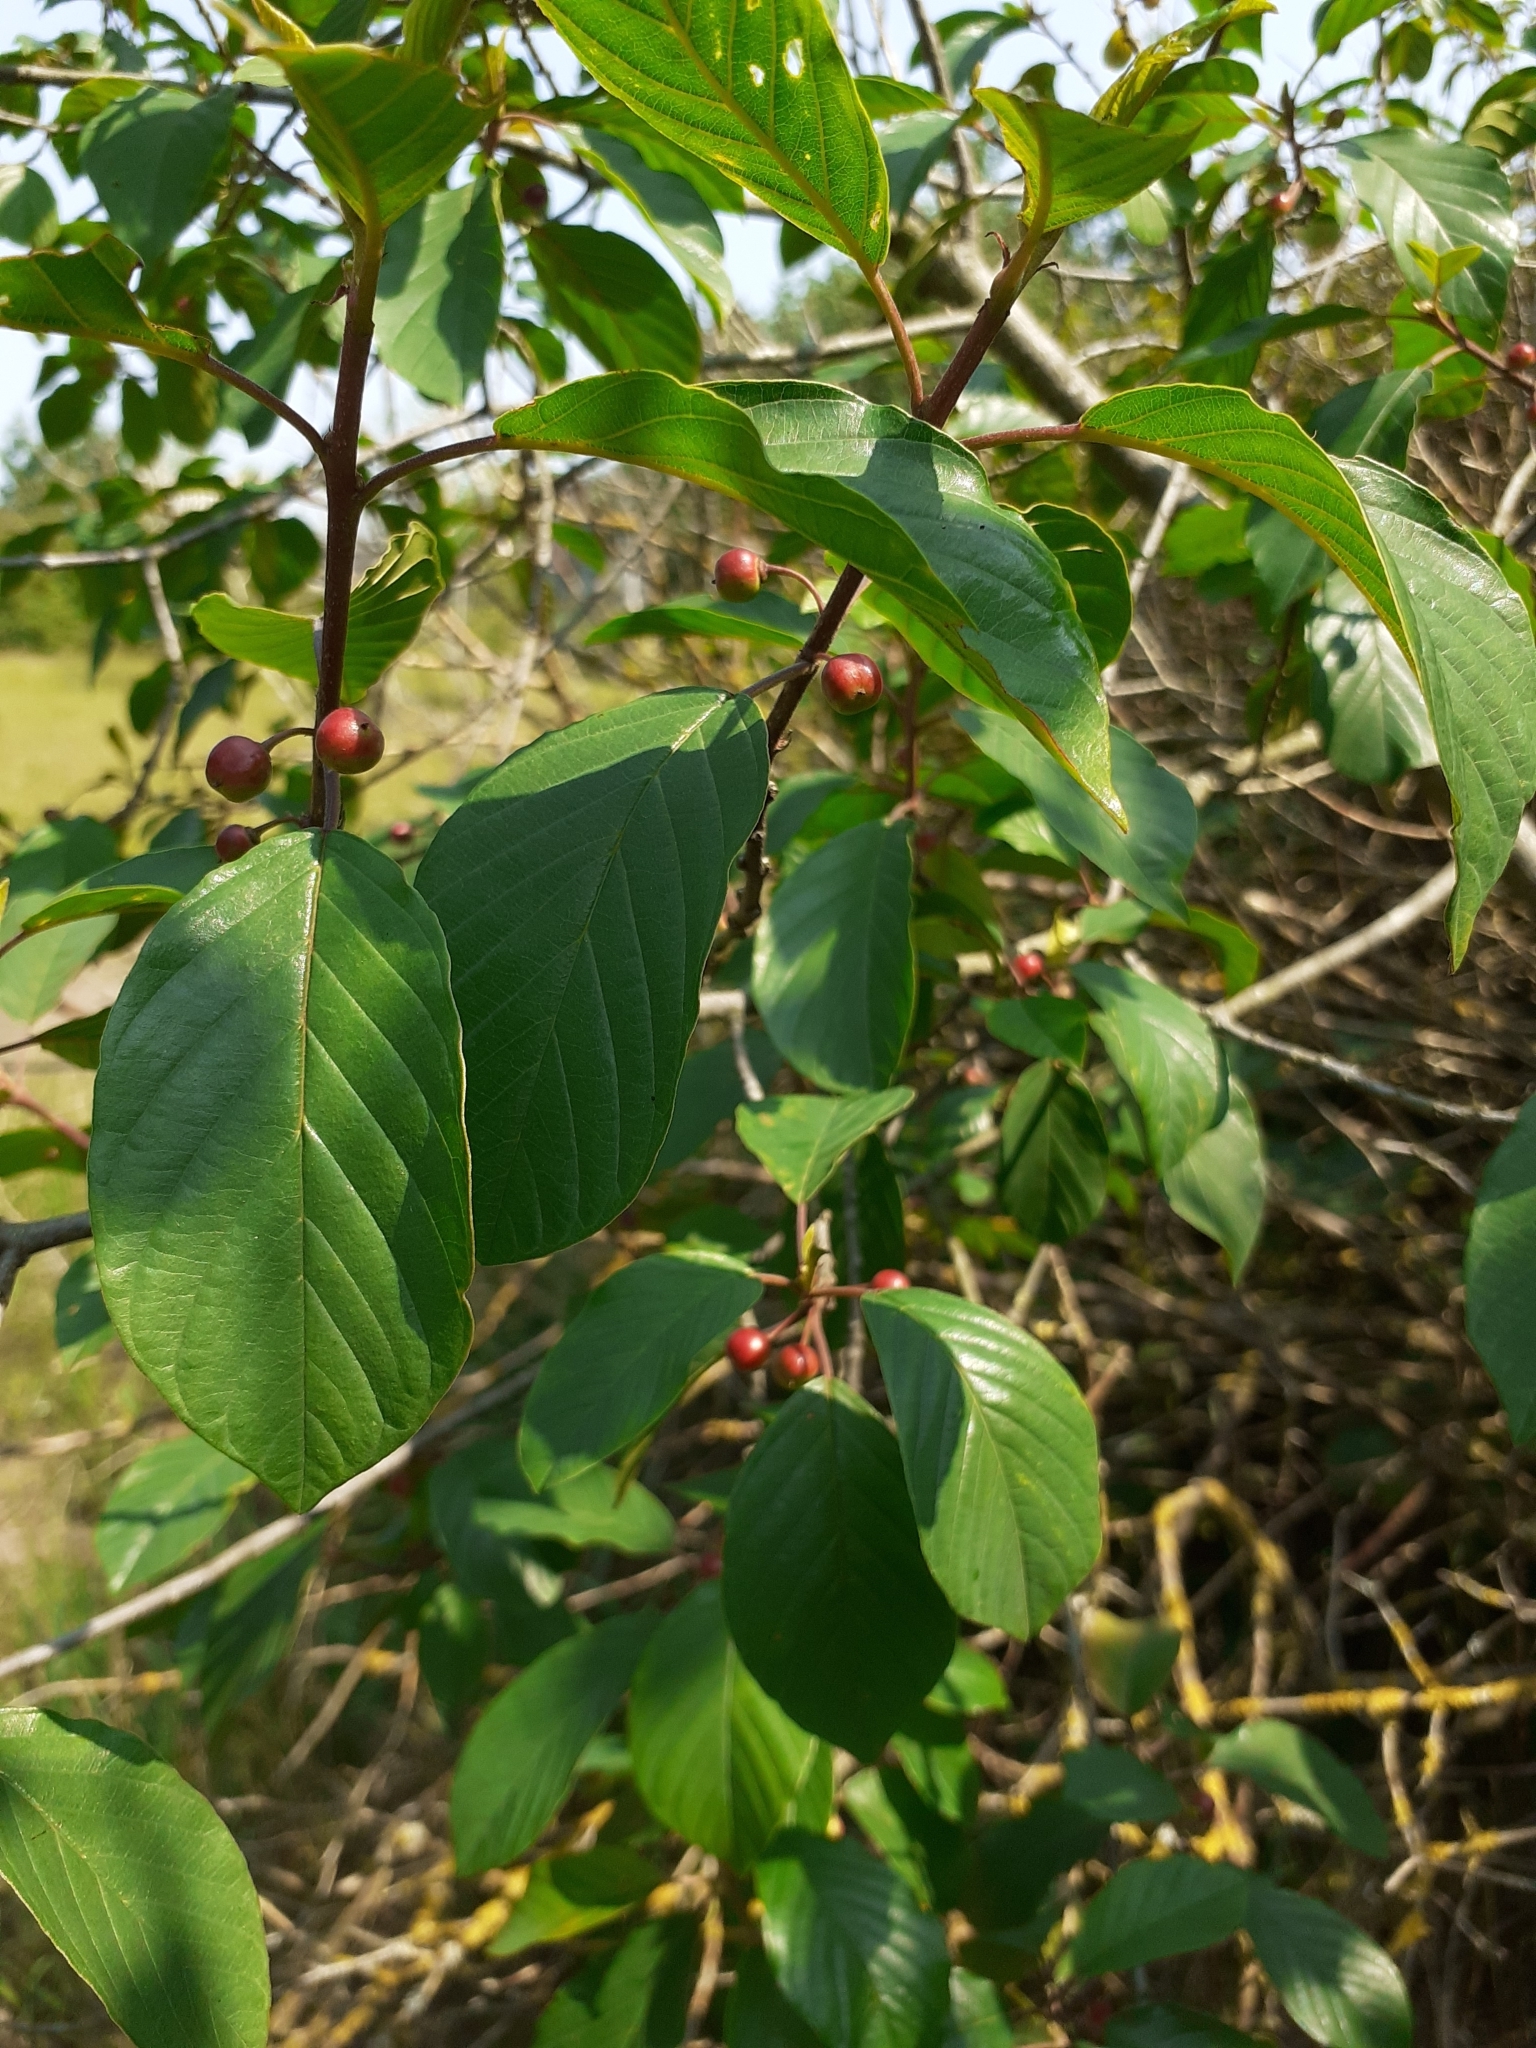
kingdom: Plantae
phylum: Tracheophyta
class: Magnoliopsida
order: Rosales
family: Rhamnaceae
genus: Frangula
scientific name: Frangula alnus
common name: Alder buckthorn
